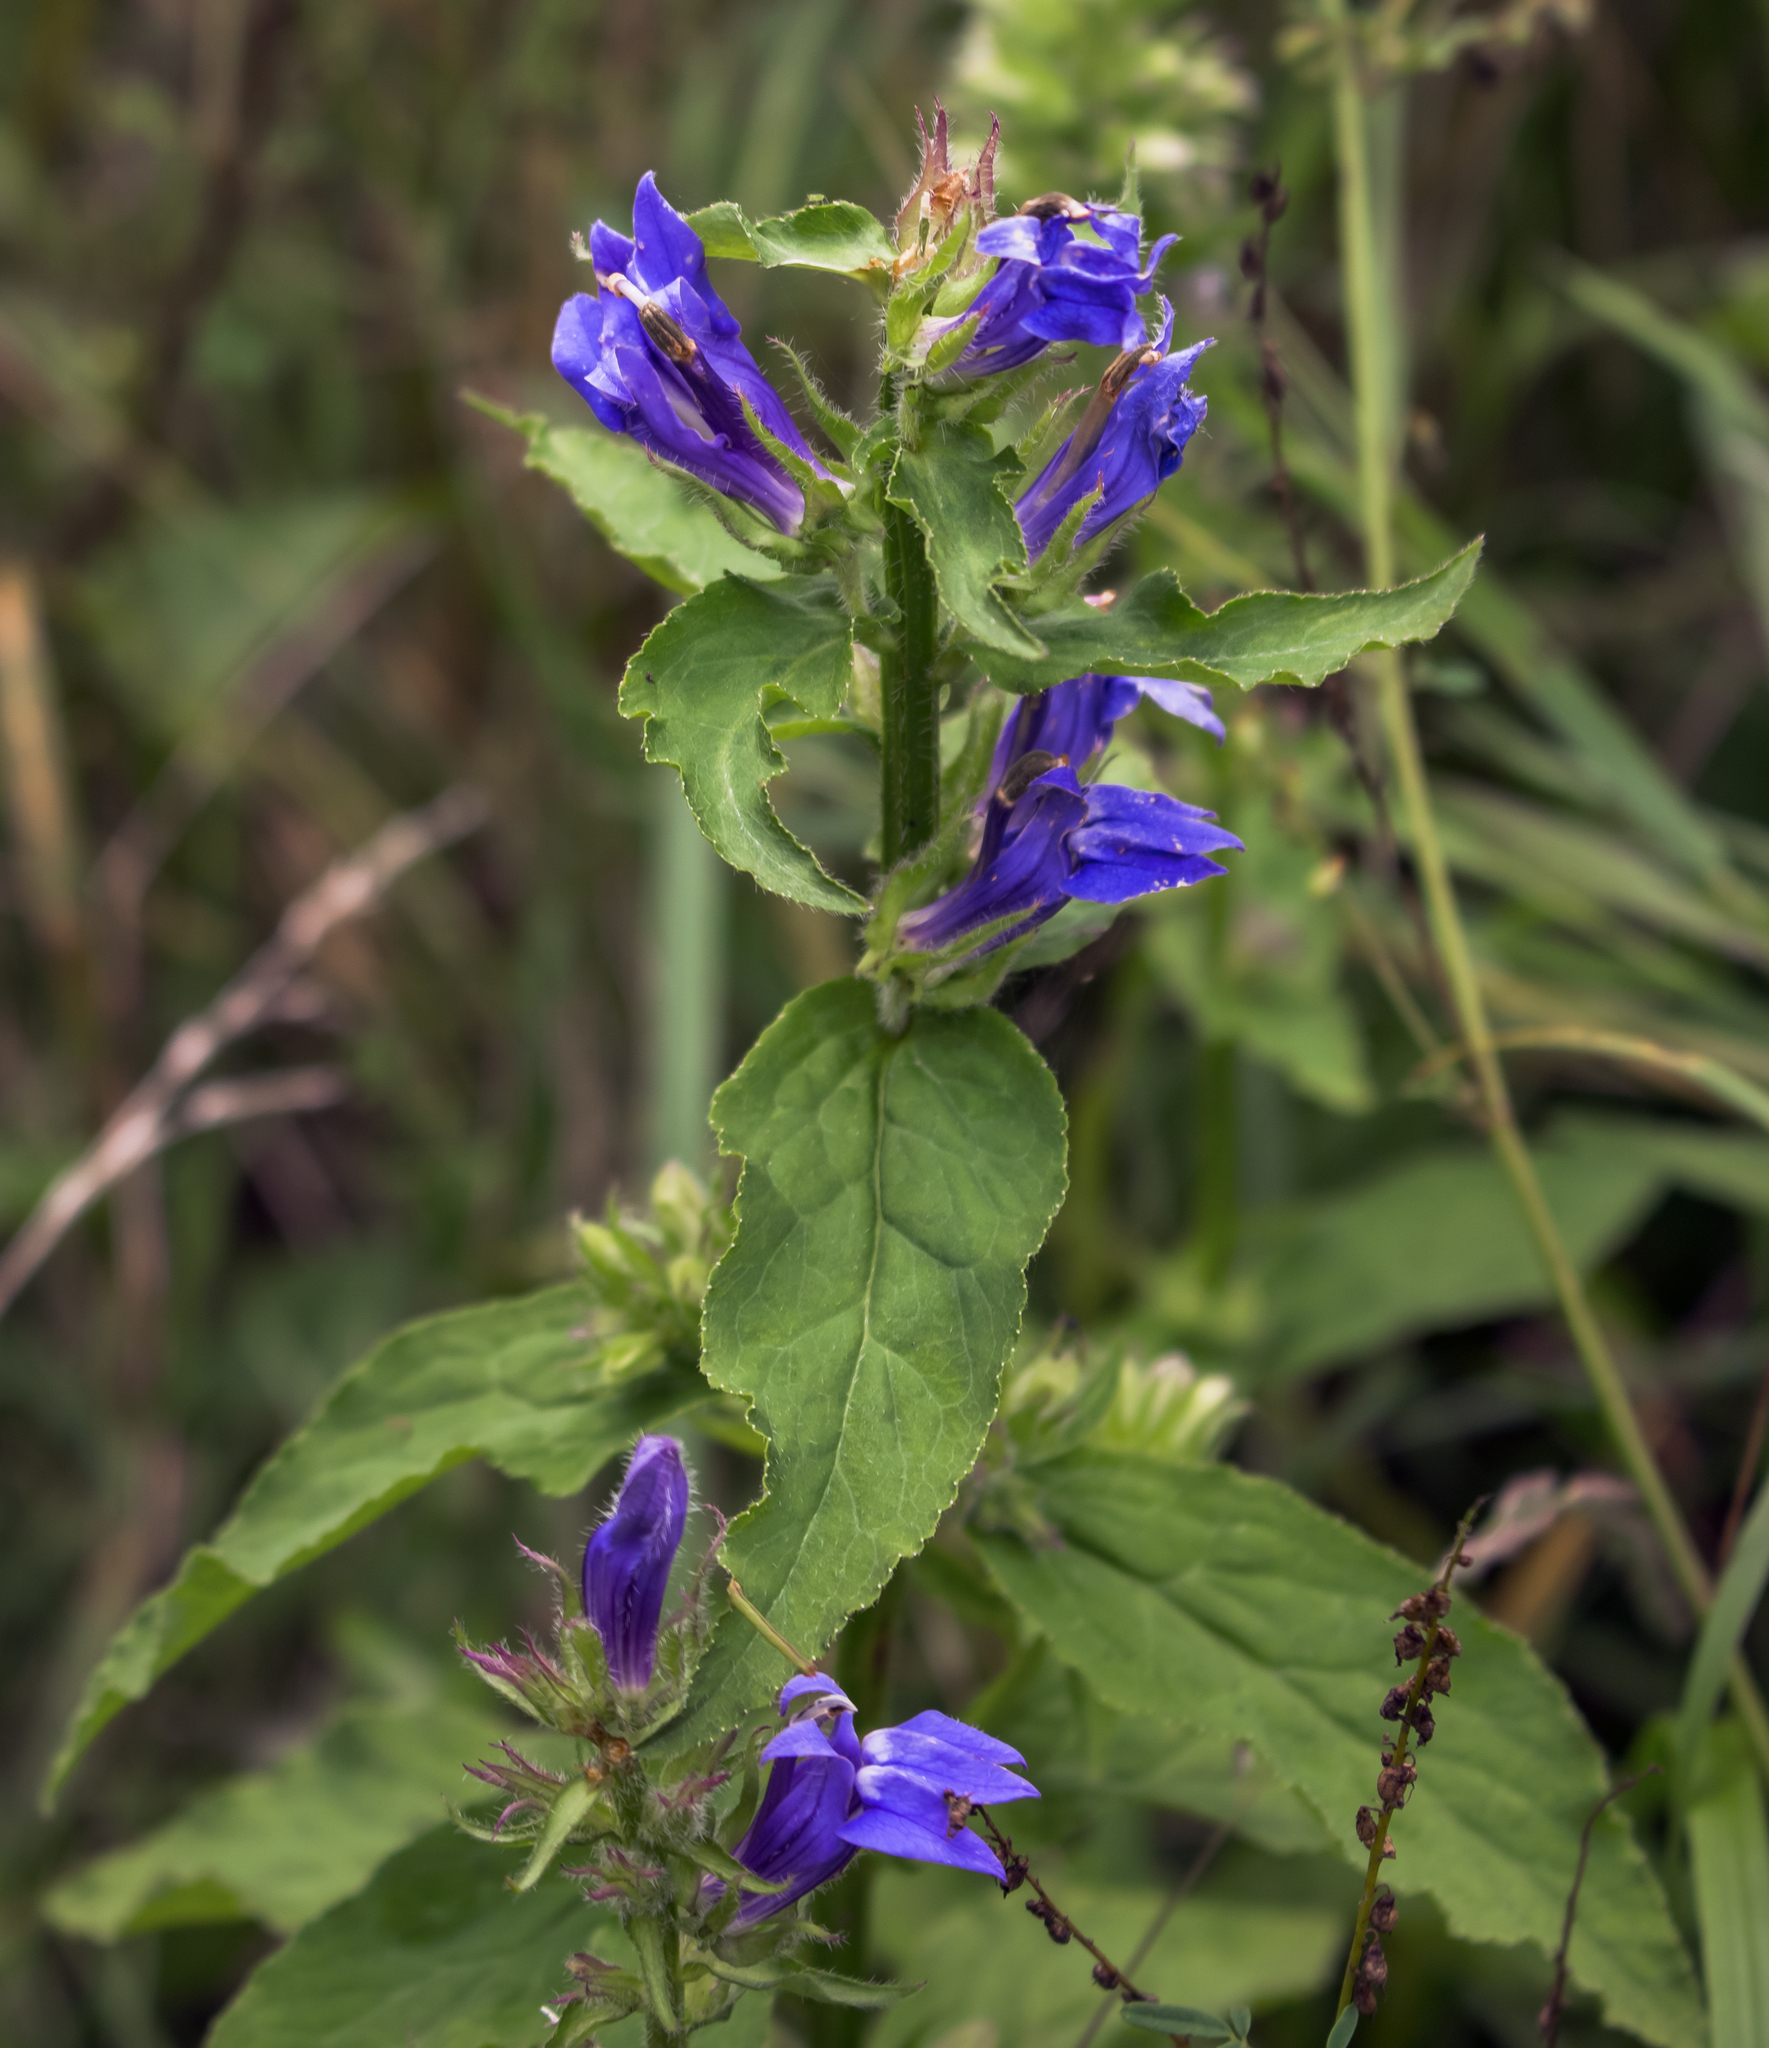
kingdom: Plantae
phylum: Tracheophyta
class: Magnoliopsida
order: Asterales
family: Campanulaceae
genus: Lobelia
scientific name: Lobelia siphilitica
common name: Great lobelia
